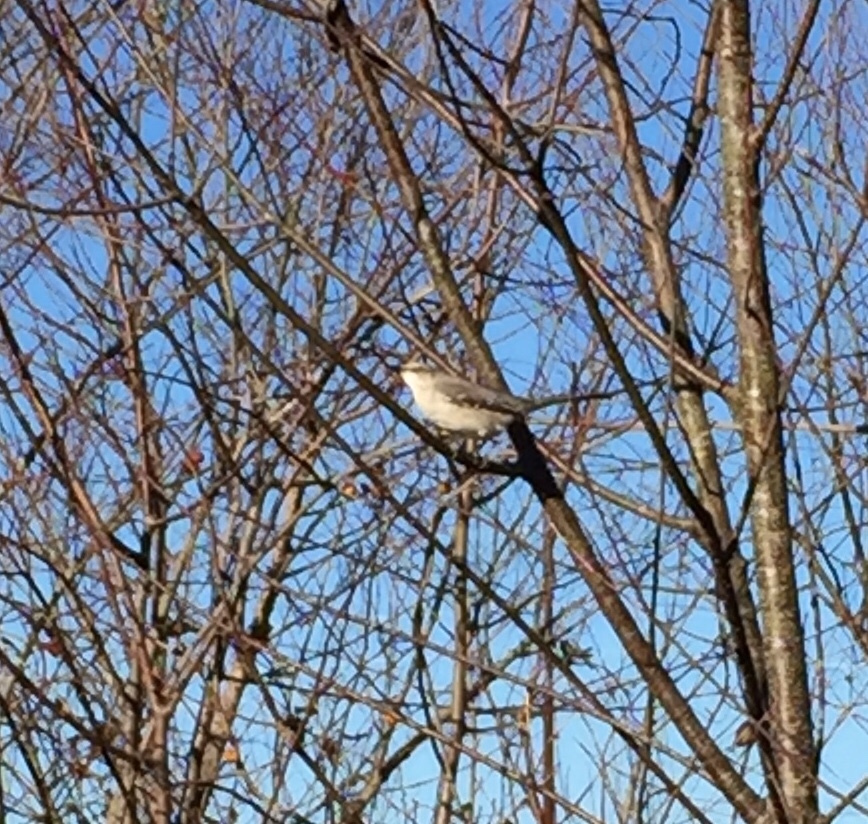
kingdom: Animalia
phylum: Chordata
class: Aves
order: Passeriformes
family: Mimidae
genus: Mimus
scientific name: Mimus polyglottos
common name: Northern mockingbird
